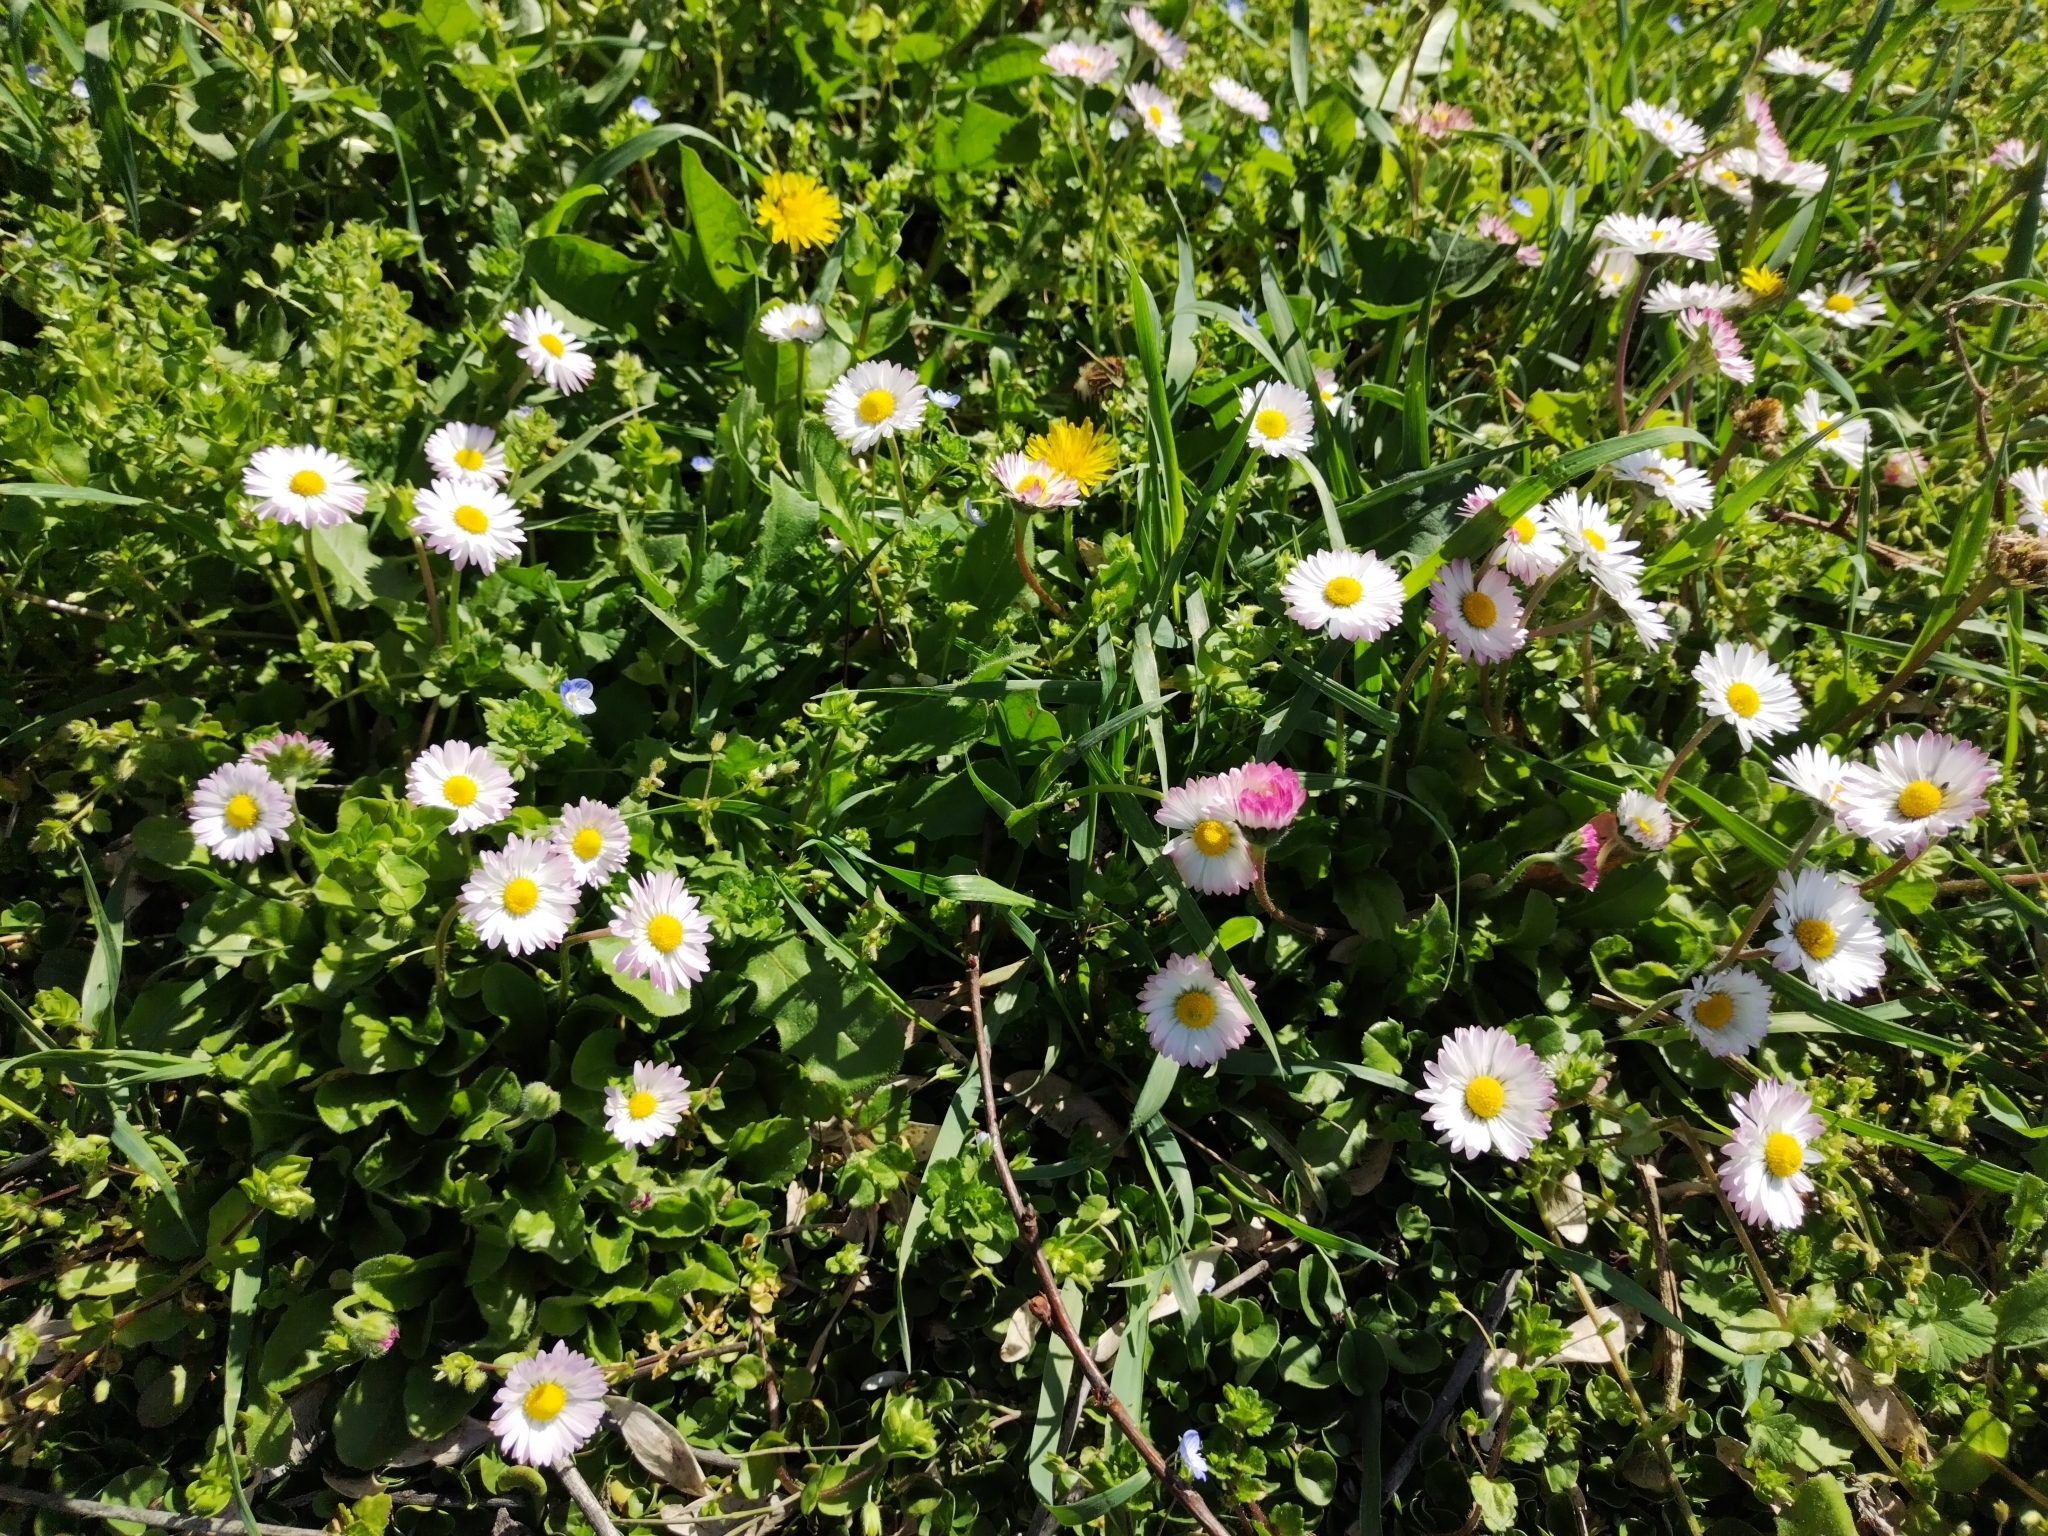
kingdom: Plantae
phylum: Tracheophyta
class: Magnoliopsida
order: Asterales
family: Asteraceae
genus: Bellis
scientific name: Bellis perennis
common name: Lawndaisy
